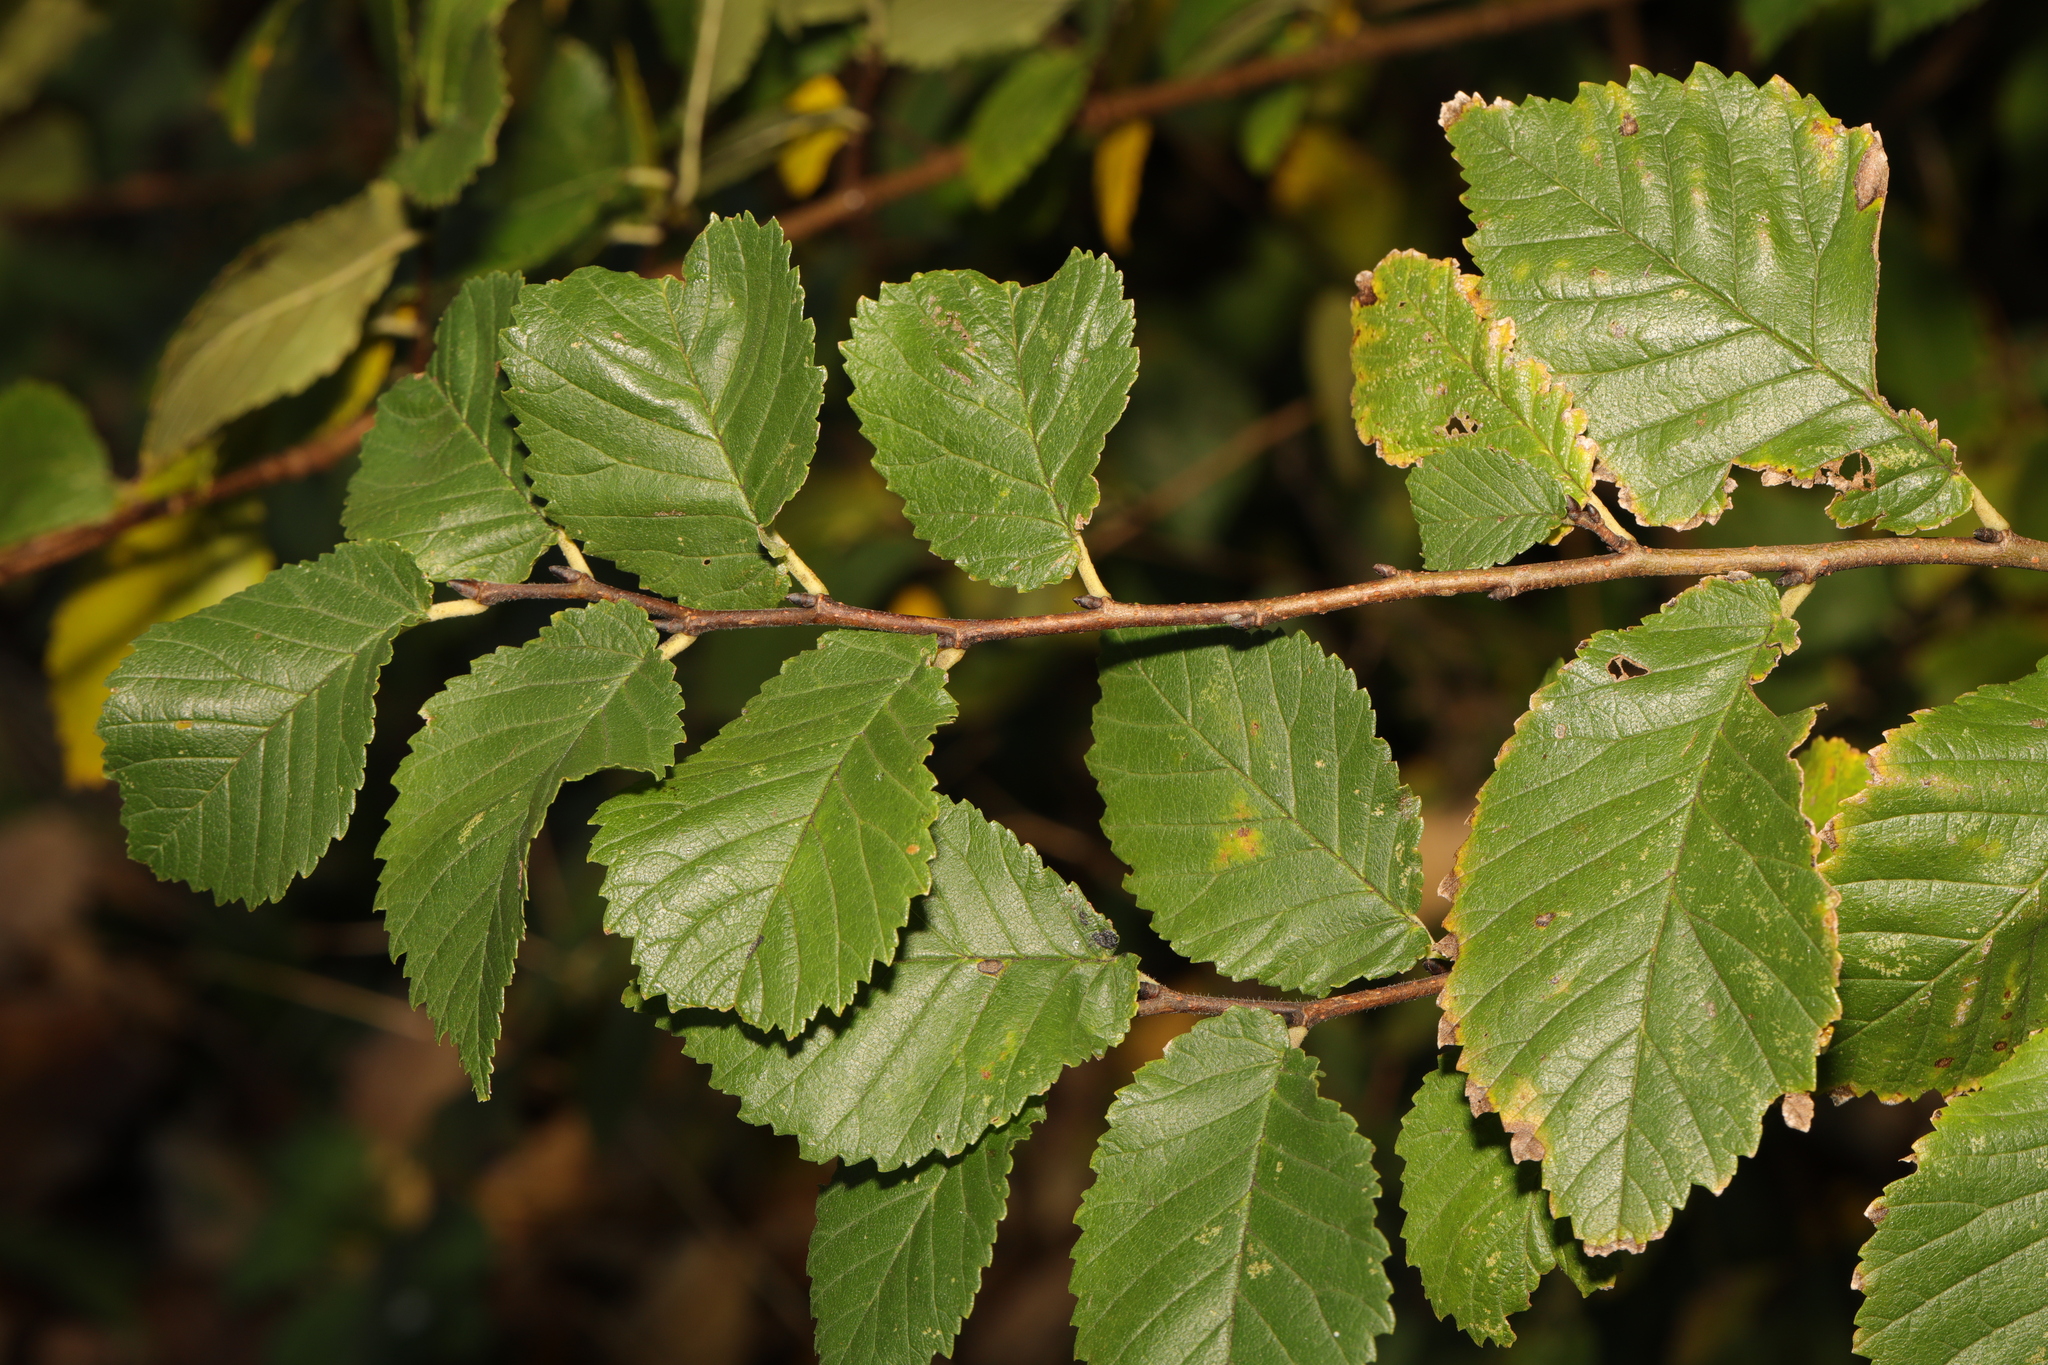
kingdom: Plantae
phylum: Tracheophyta
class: Magnoliopsida
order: Rosales
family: Ulmaceae
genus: Ulmus
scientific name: Ulmus minor
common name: Small-leaved elm
